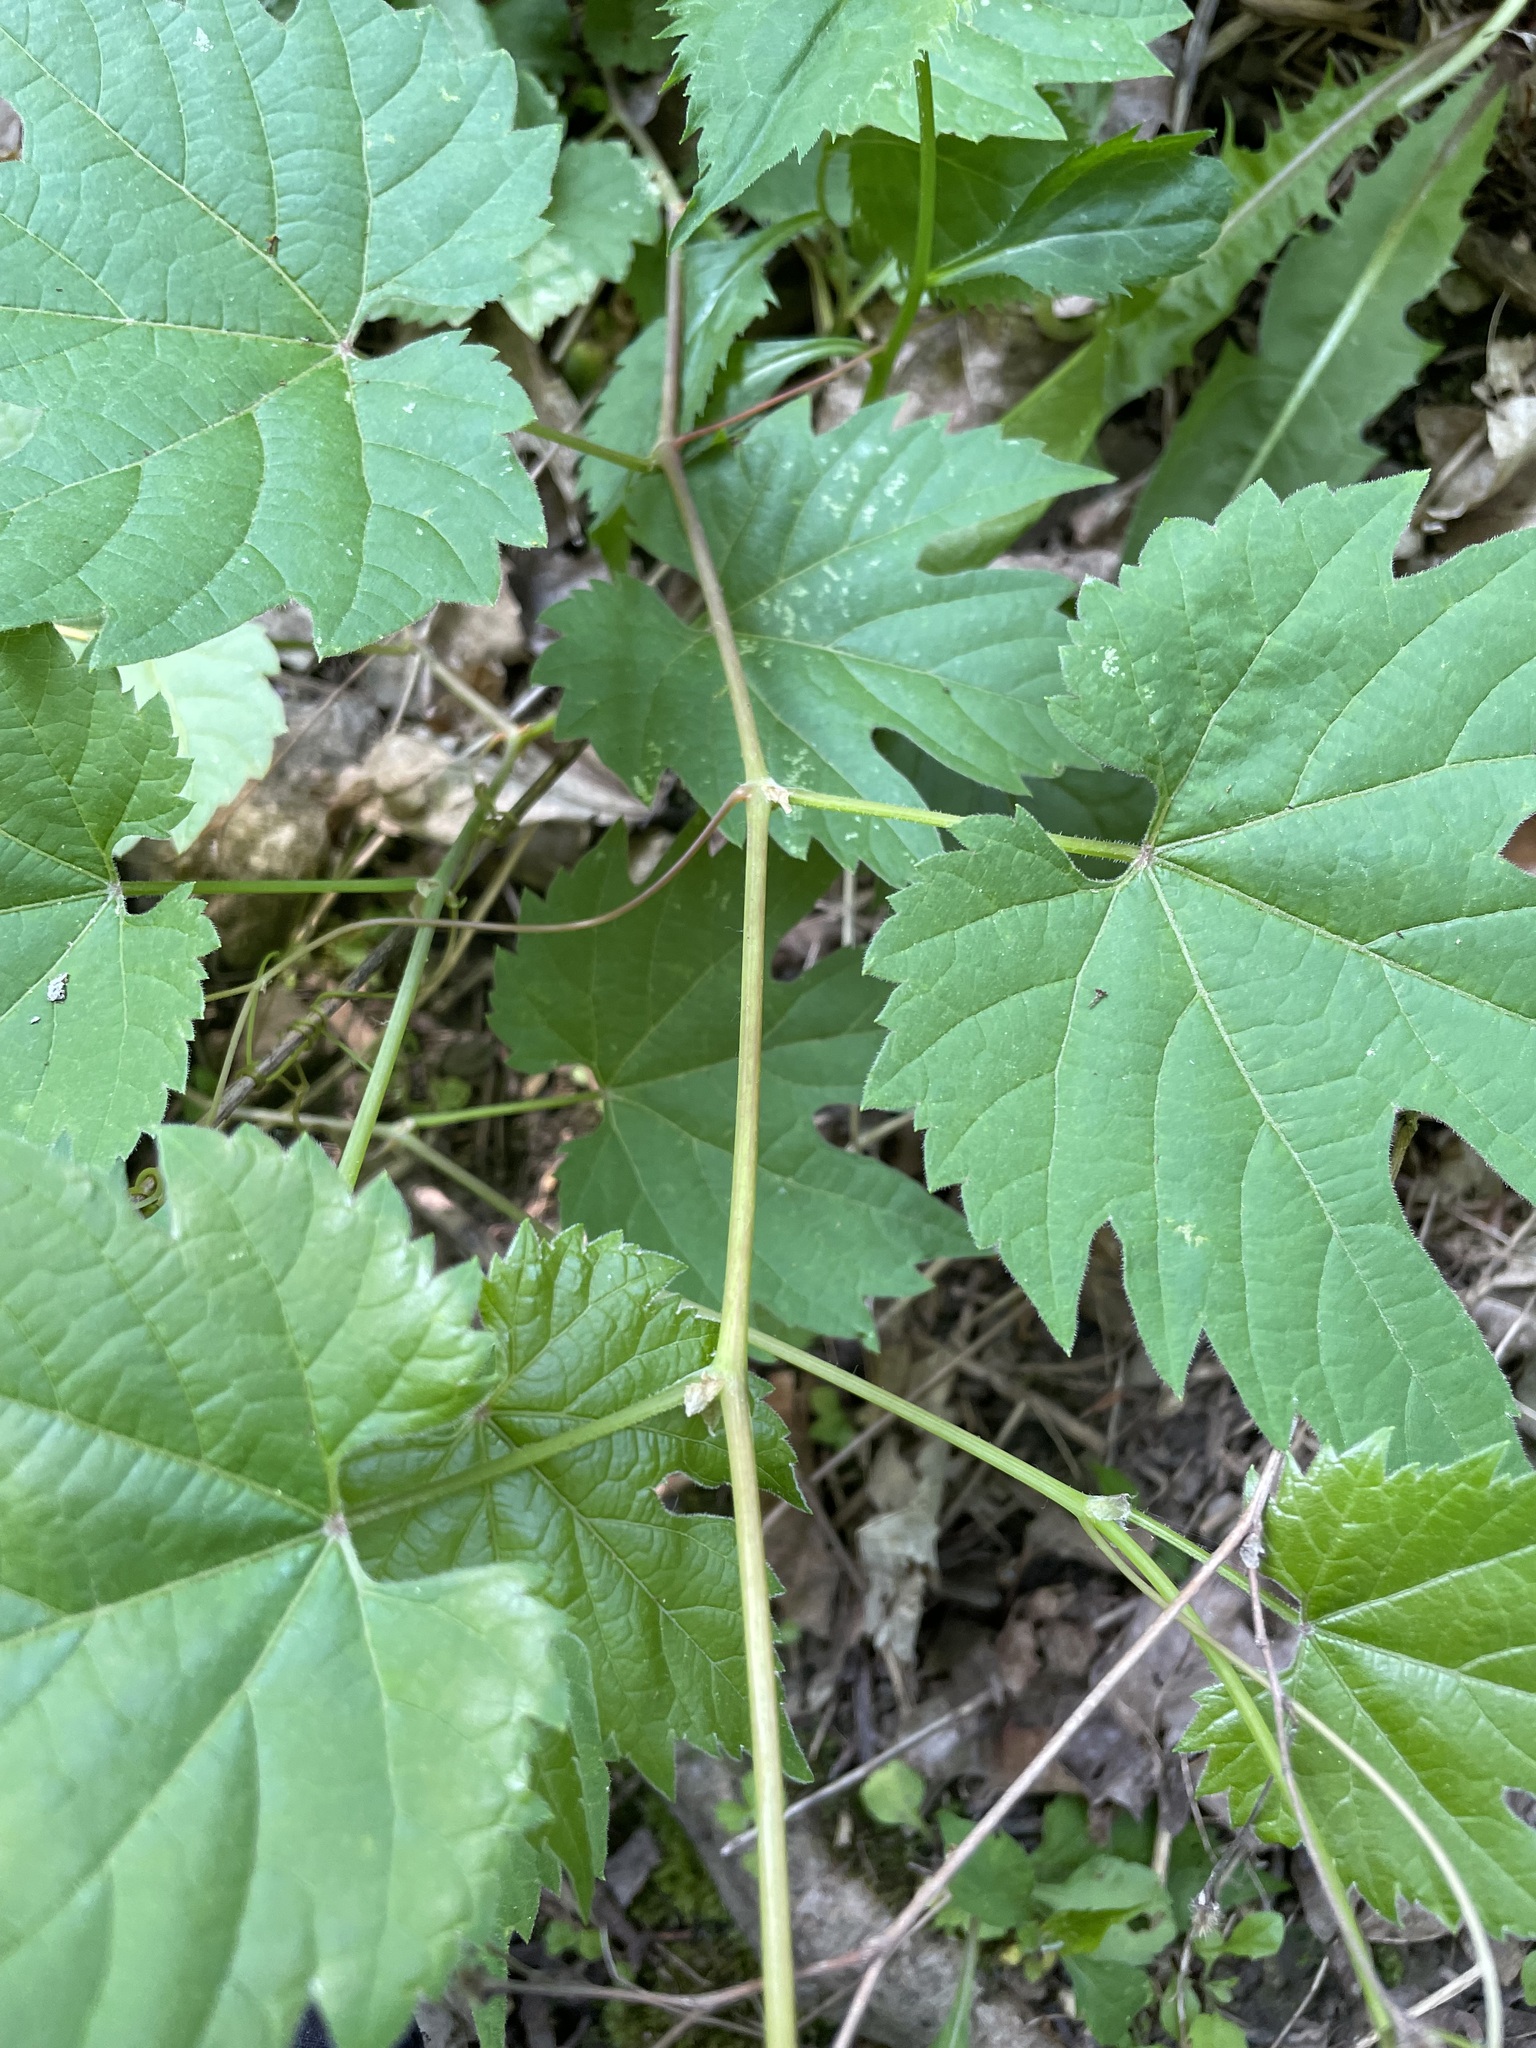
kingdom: Plantae
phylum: Tracheophyta
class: Magnoliopsida
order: Vitales
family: Vitaceae
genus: Vitis
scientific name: Vitis riparia
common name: Frost grape
